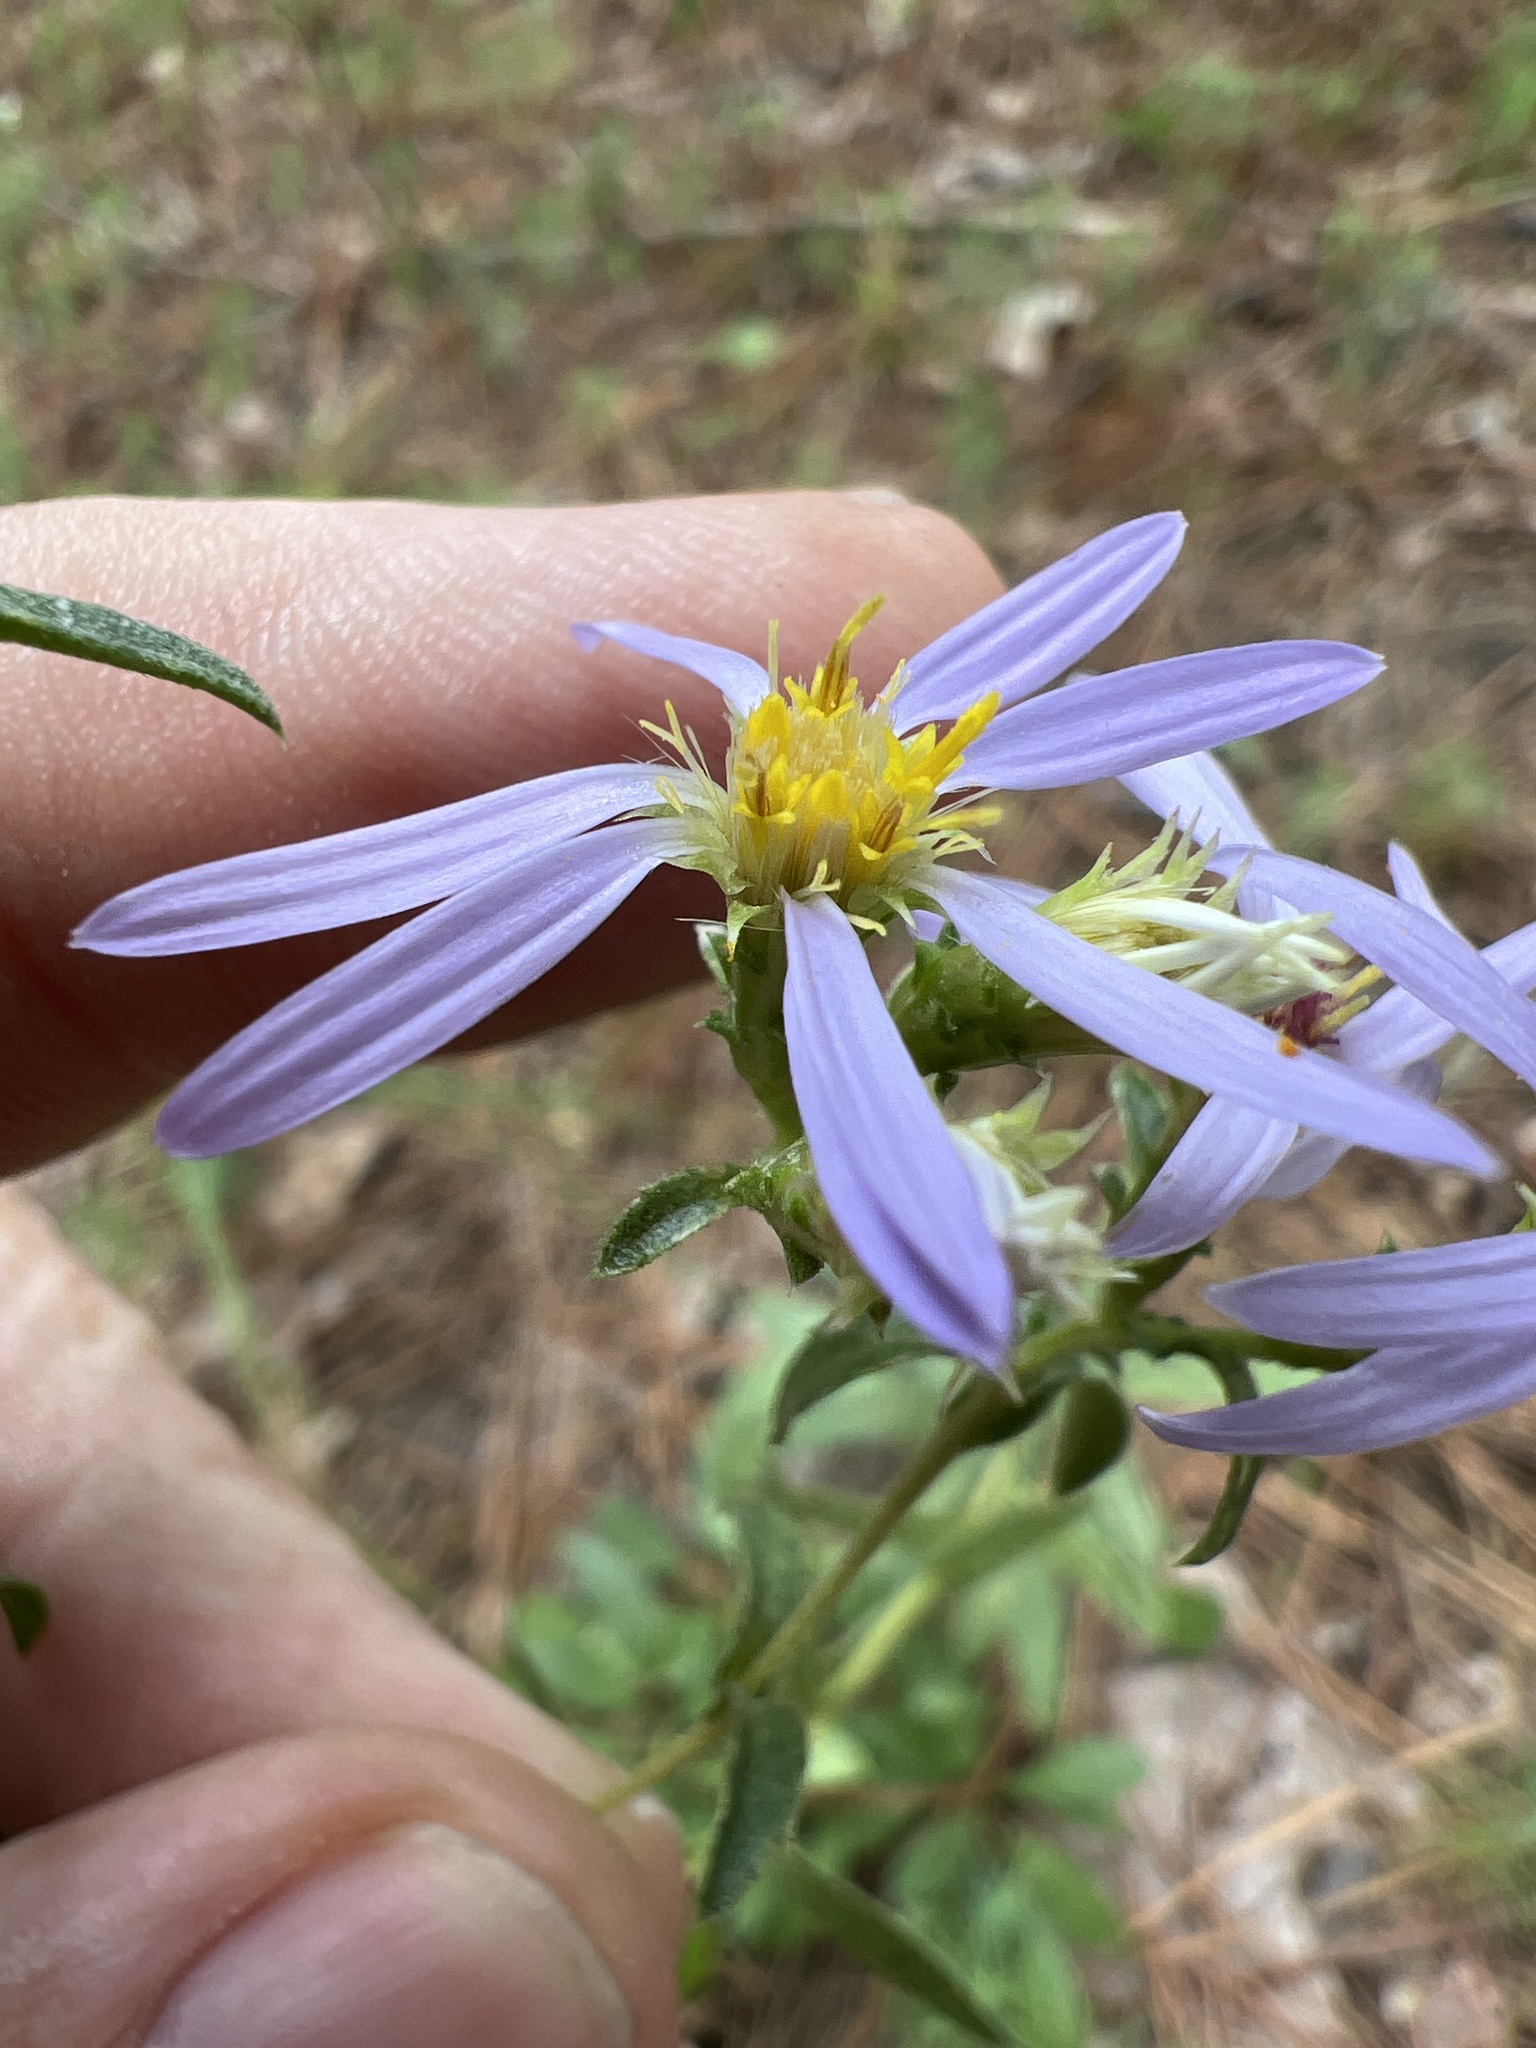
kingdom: Plantae
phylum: Tracheophyta
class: Magnoliopsida
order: Asterales
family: Asteraceae
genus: Eurybia
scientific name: Eurybia compacta
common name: Slender aster
